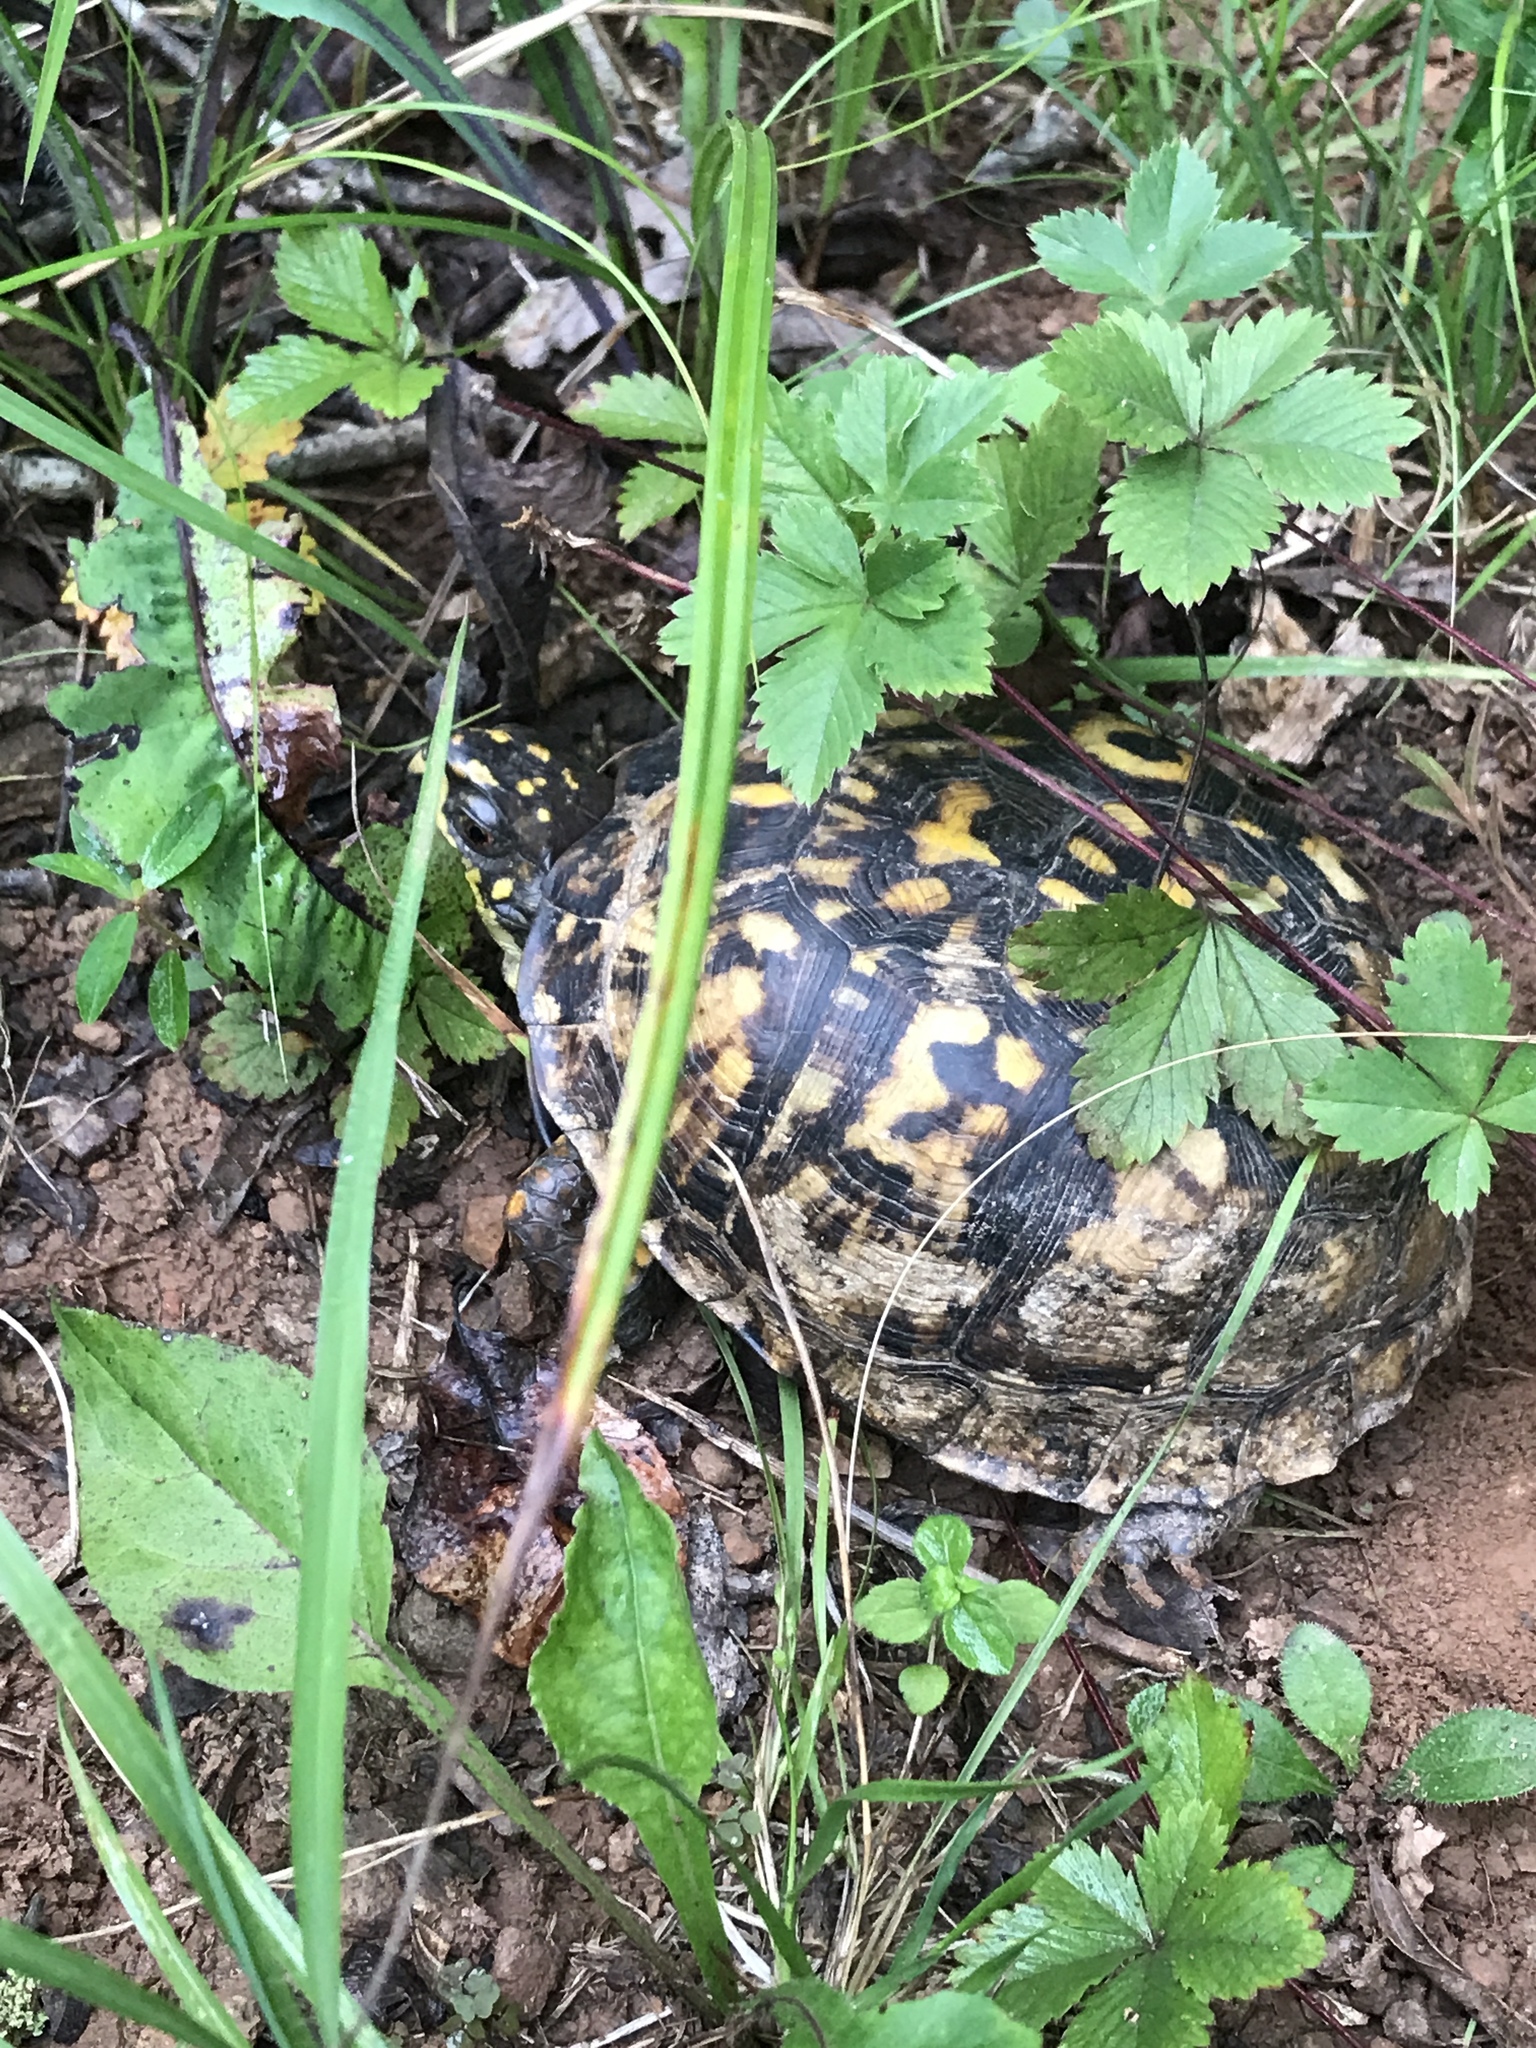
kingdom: Animalia
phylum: Chordata
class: Testudines
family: Emydidae
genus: Terrapene
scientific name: Terrapene carolina
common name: Common box turtle
